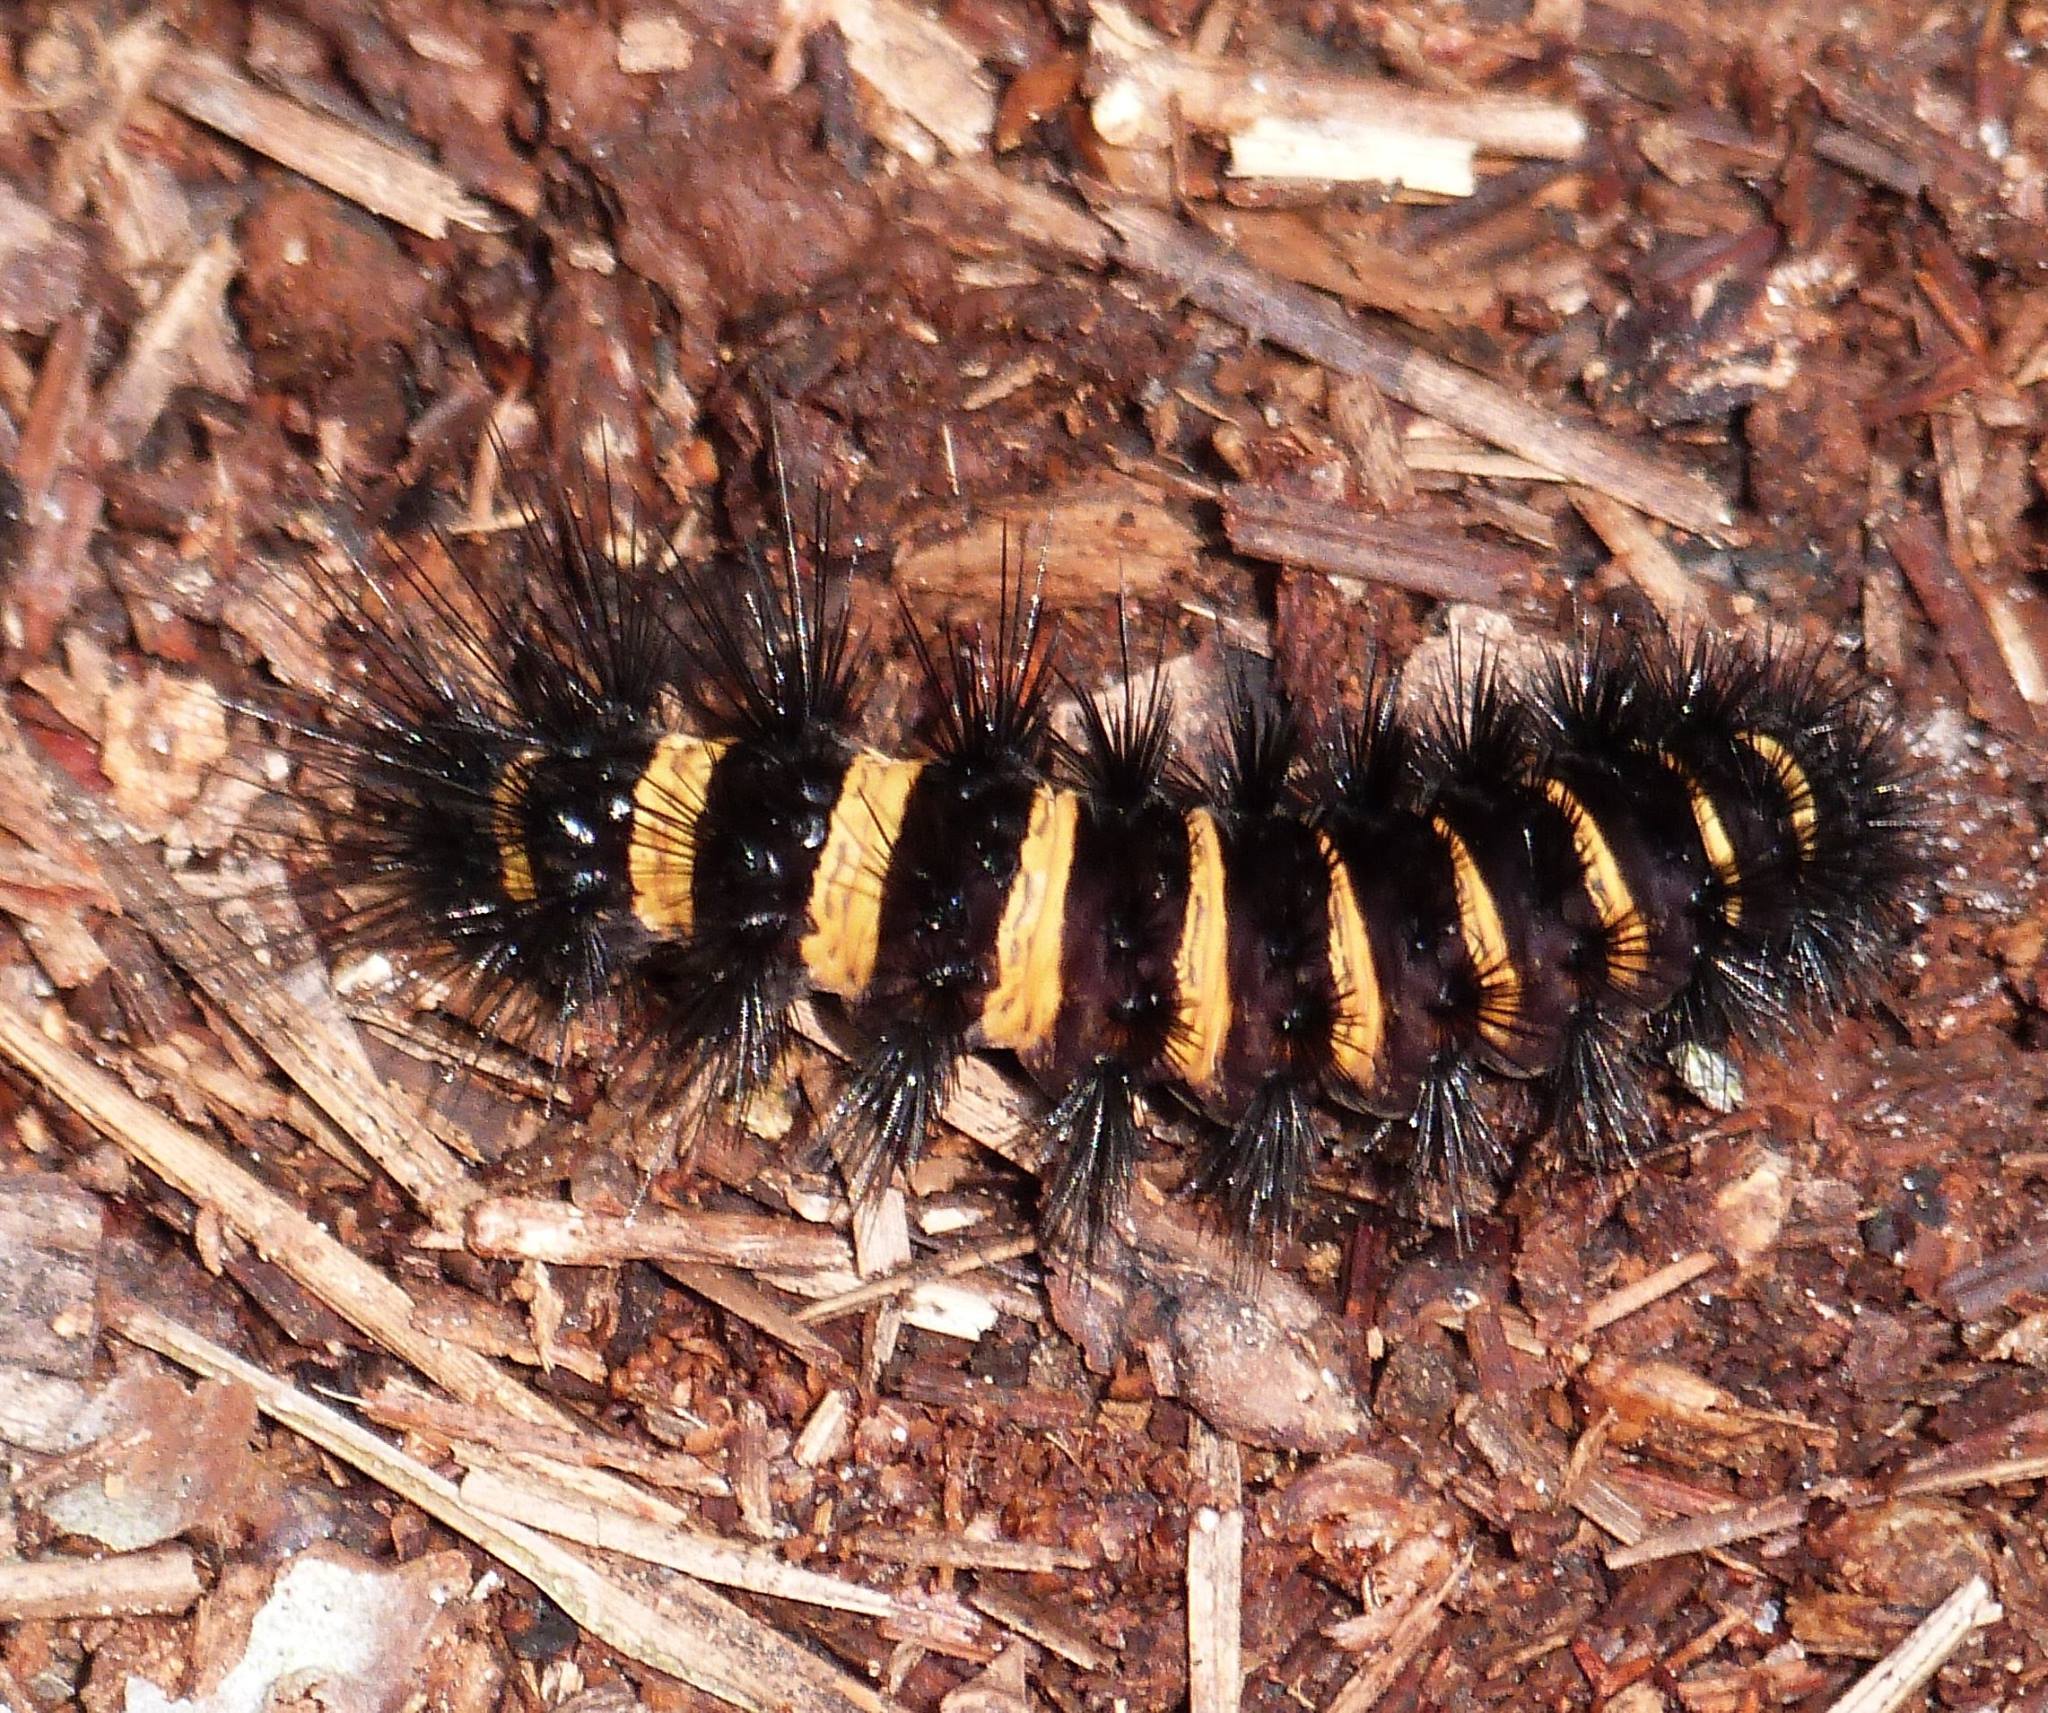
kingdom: Animalia
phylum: Arthropoda
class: Insecta
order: Lepidoptera
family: Erebidae
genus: Spilosoma
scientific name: Spilosoma congrua
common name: Agreeable tiger moth
